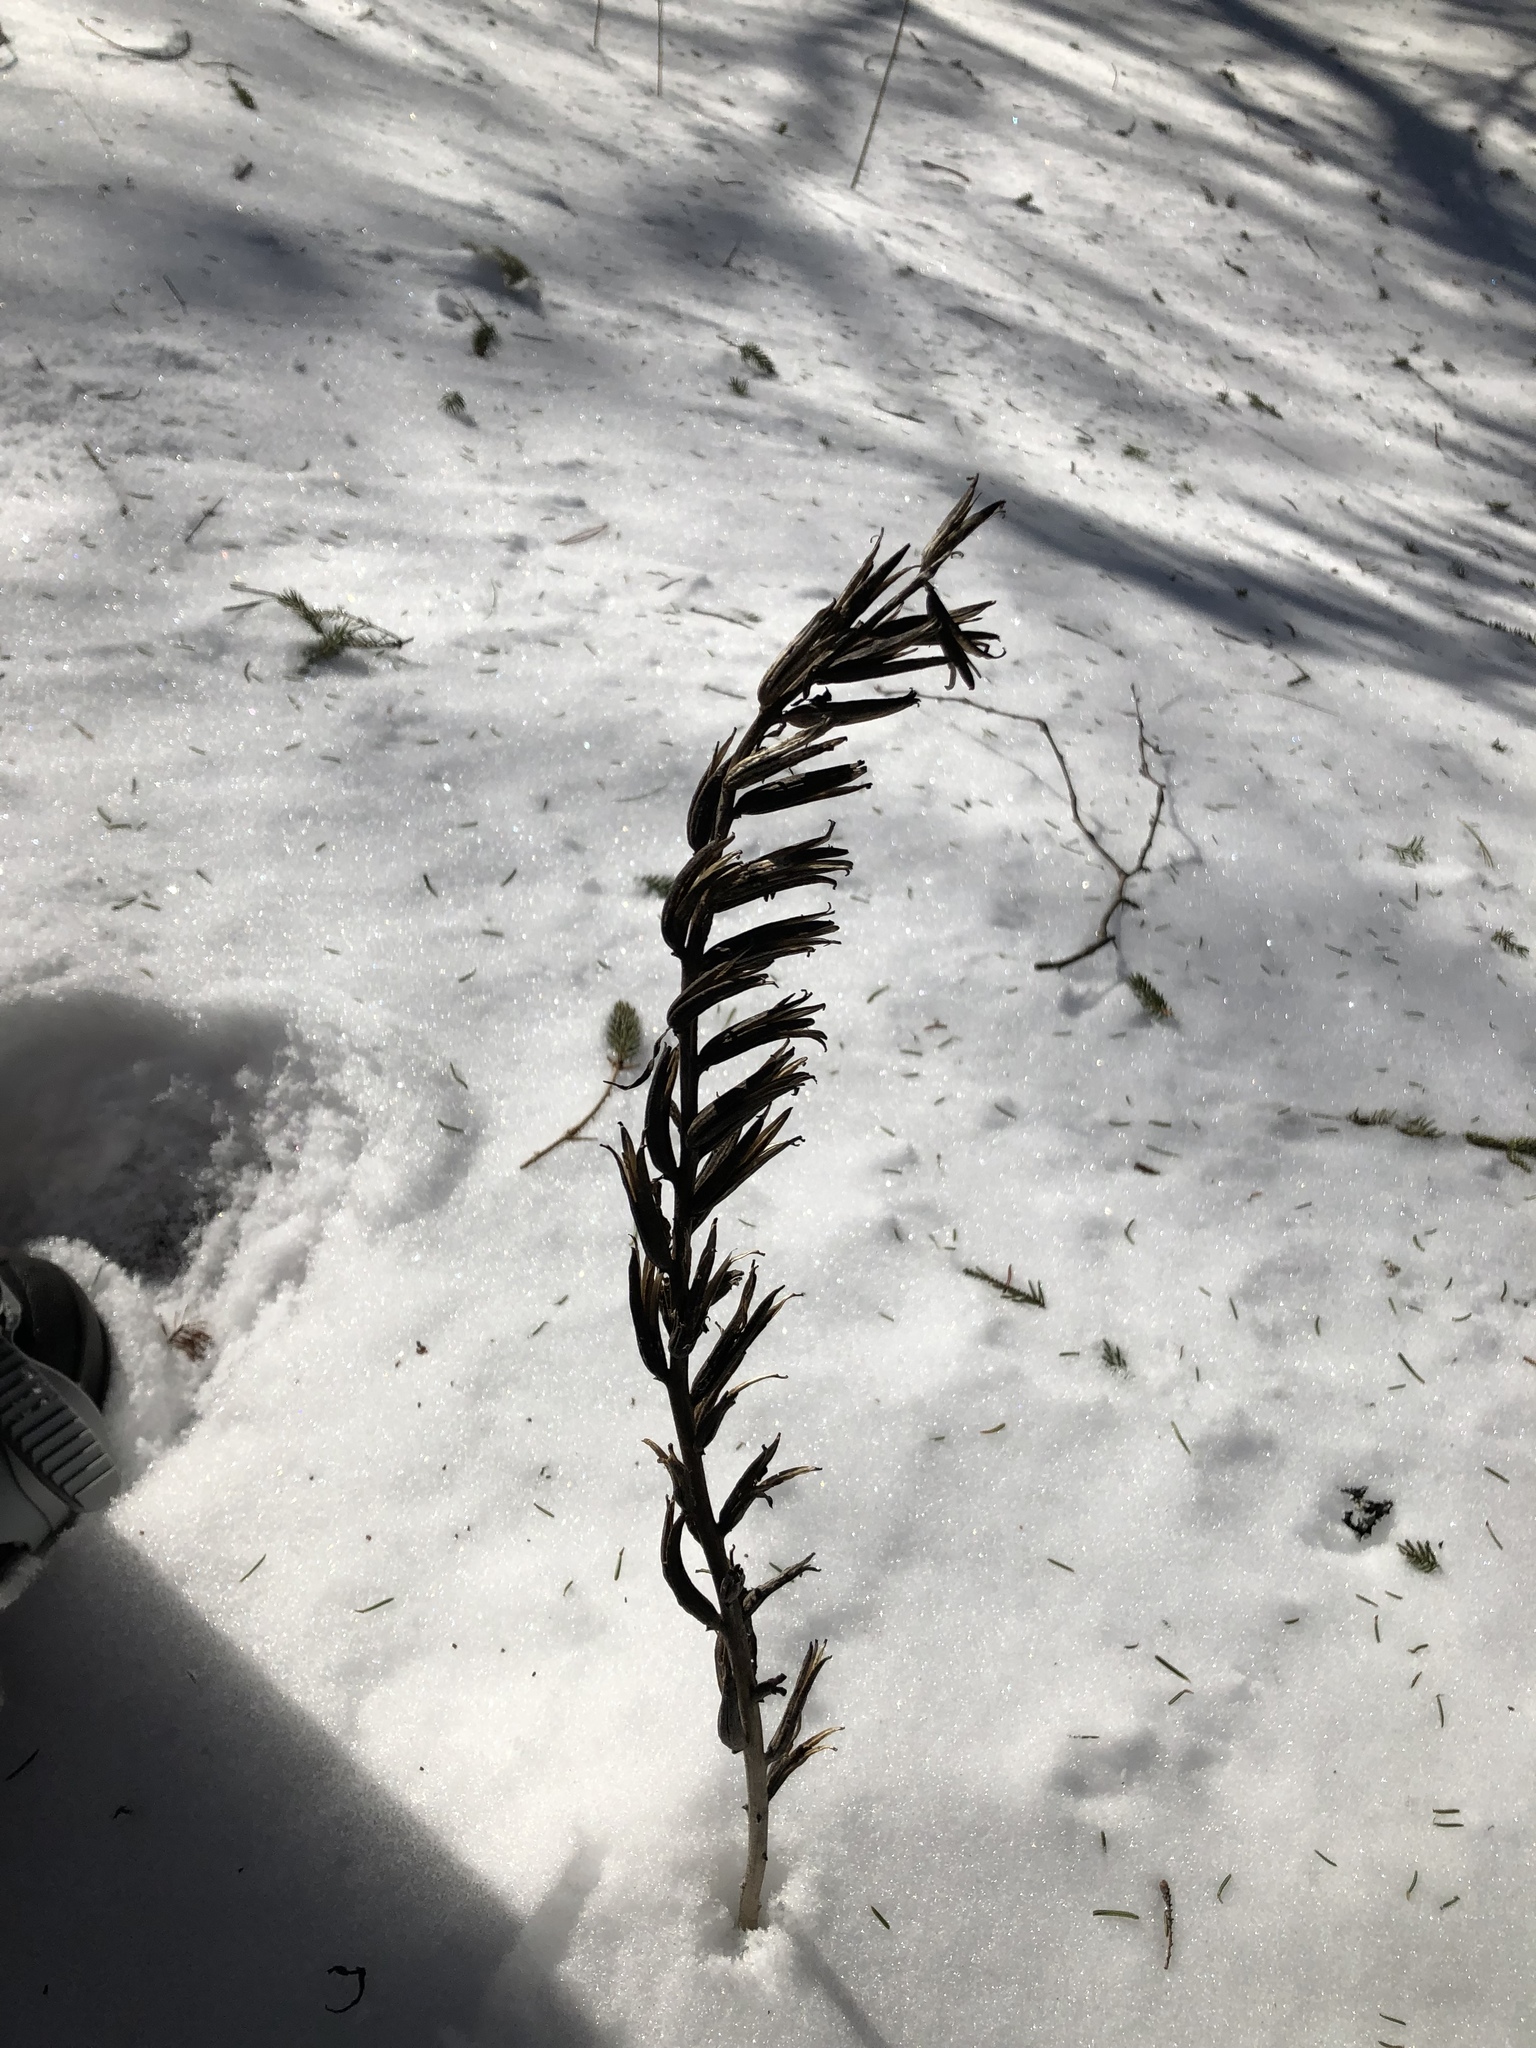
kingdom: Plantae
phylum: Tracheophyta
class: Magnoliopsida
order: Myrtales
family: Onagraceae
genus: Oenothera
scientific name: Oenothera biennis
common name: Common evening-primrose
